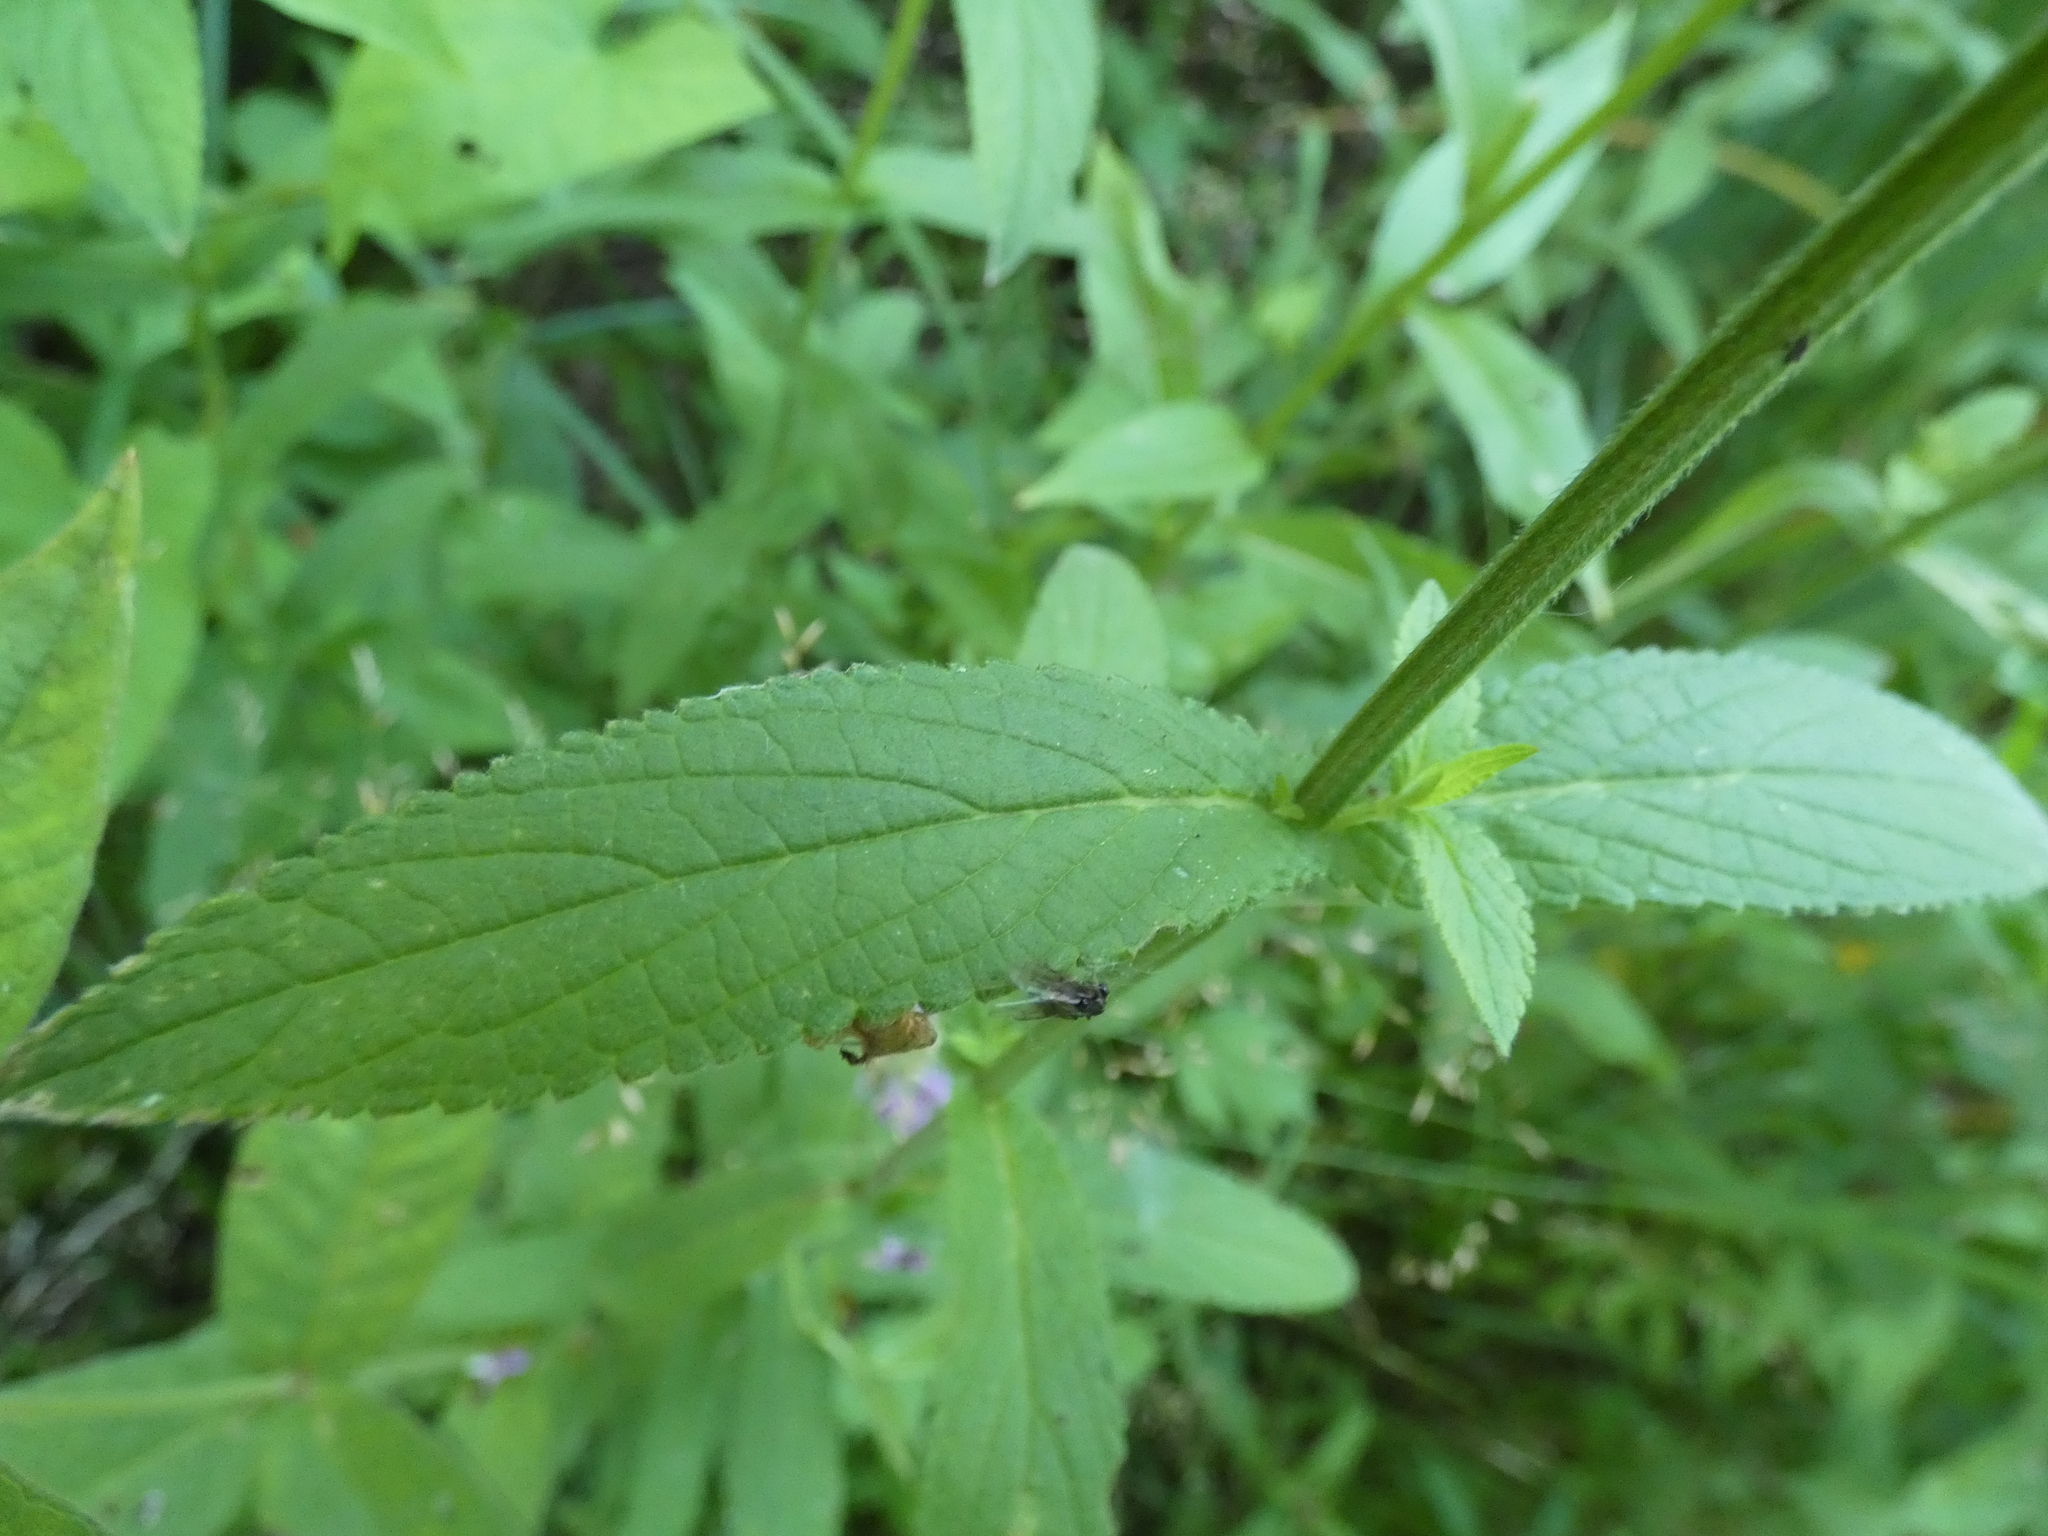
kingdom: Plantae
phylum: Tracheophyta
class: Magnoliopsida
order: Lamiales
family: Lamiaceae
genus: Stachys
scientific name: Stachys palustris
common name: Marsh woundwort
